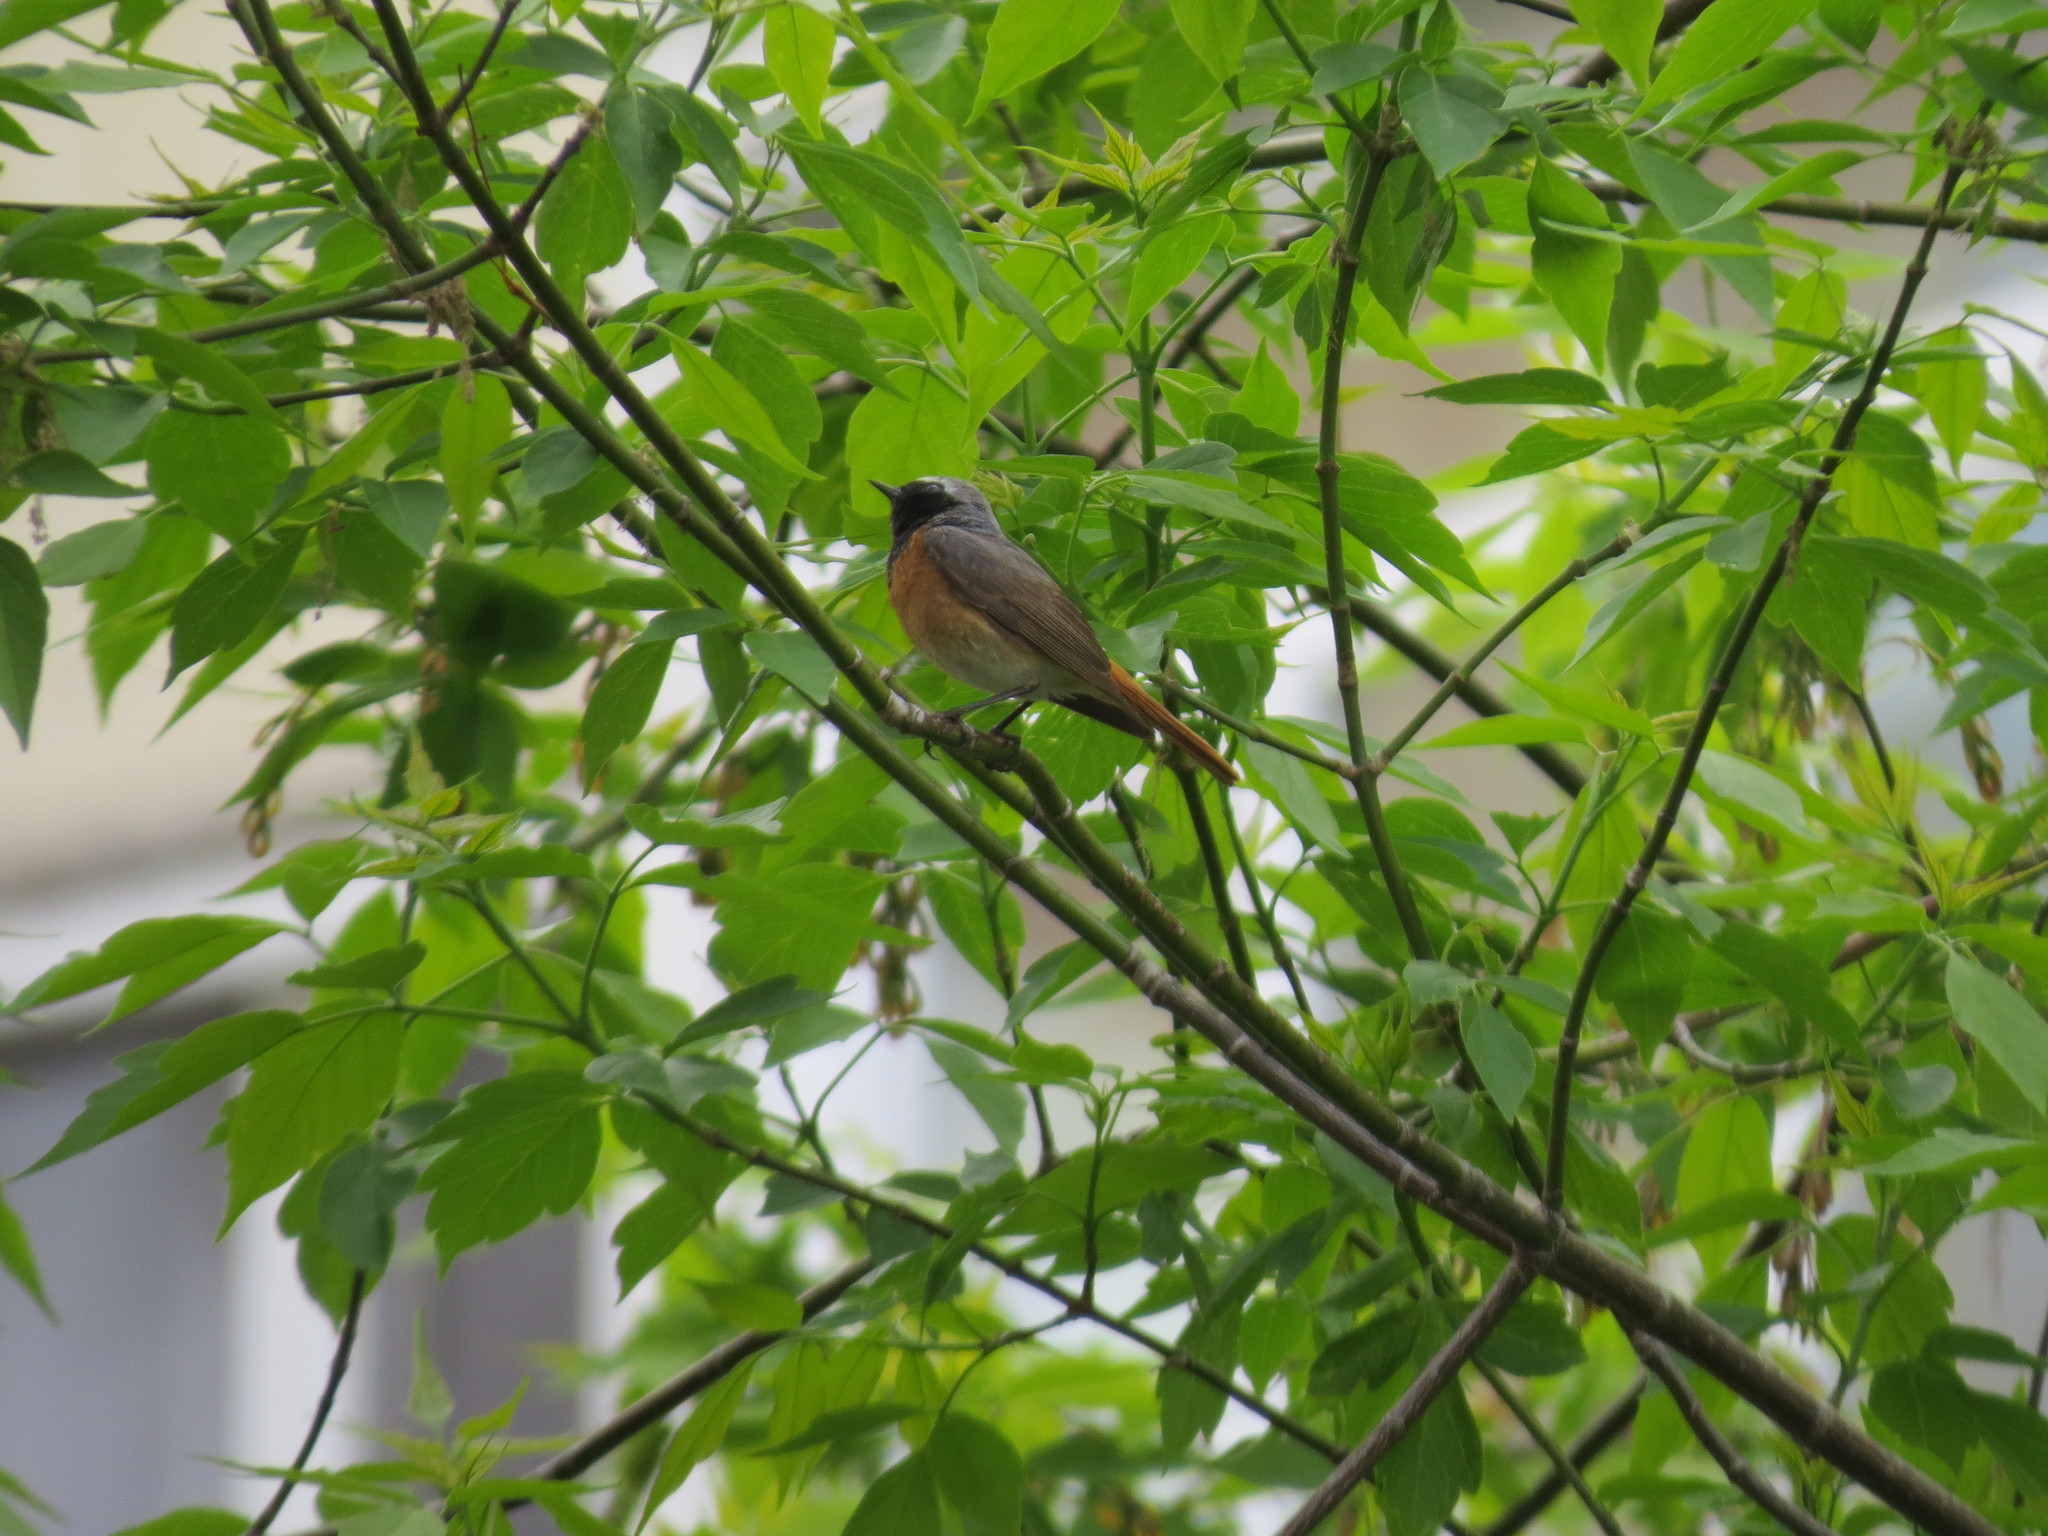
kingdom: Animalia
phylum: Chordata
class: Aves
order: Passeriformes
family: Muscicapidae
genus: Phoenicurus
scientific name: Phoenicurus phoenicurus
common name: Common redstart
